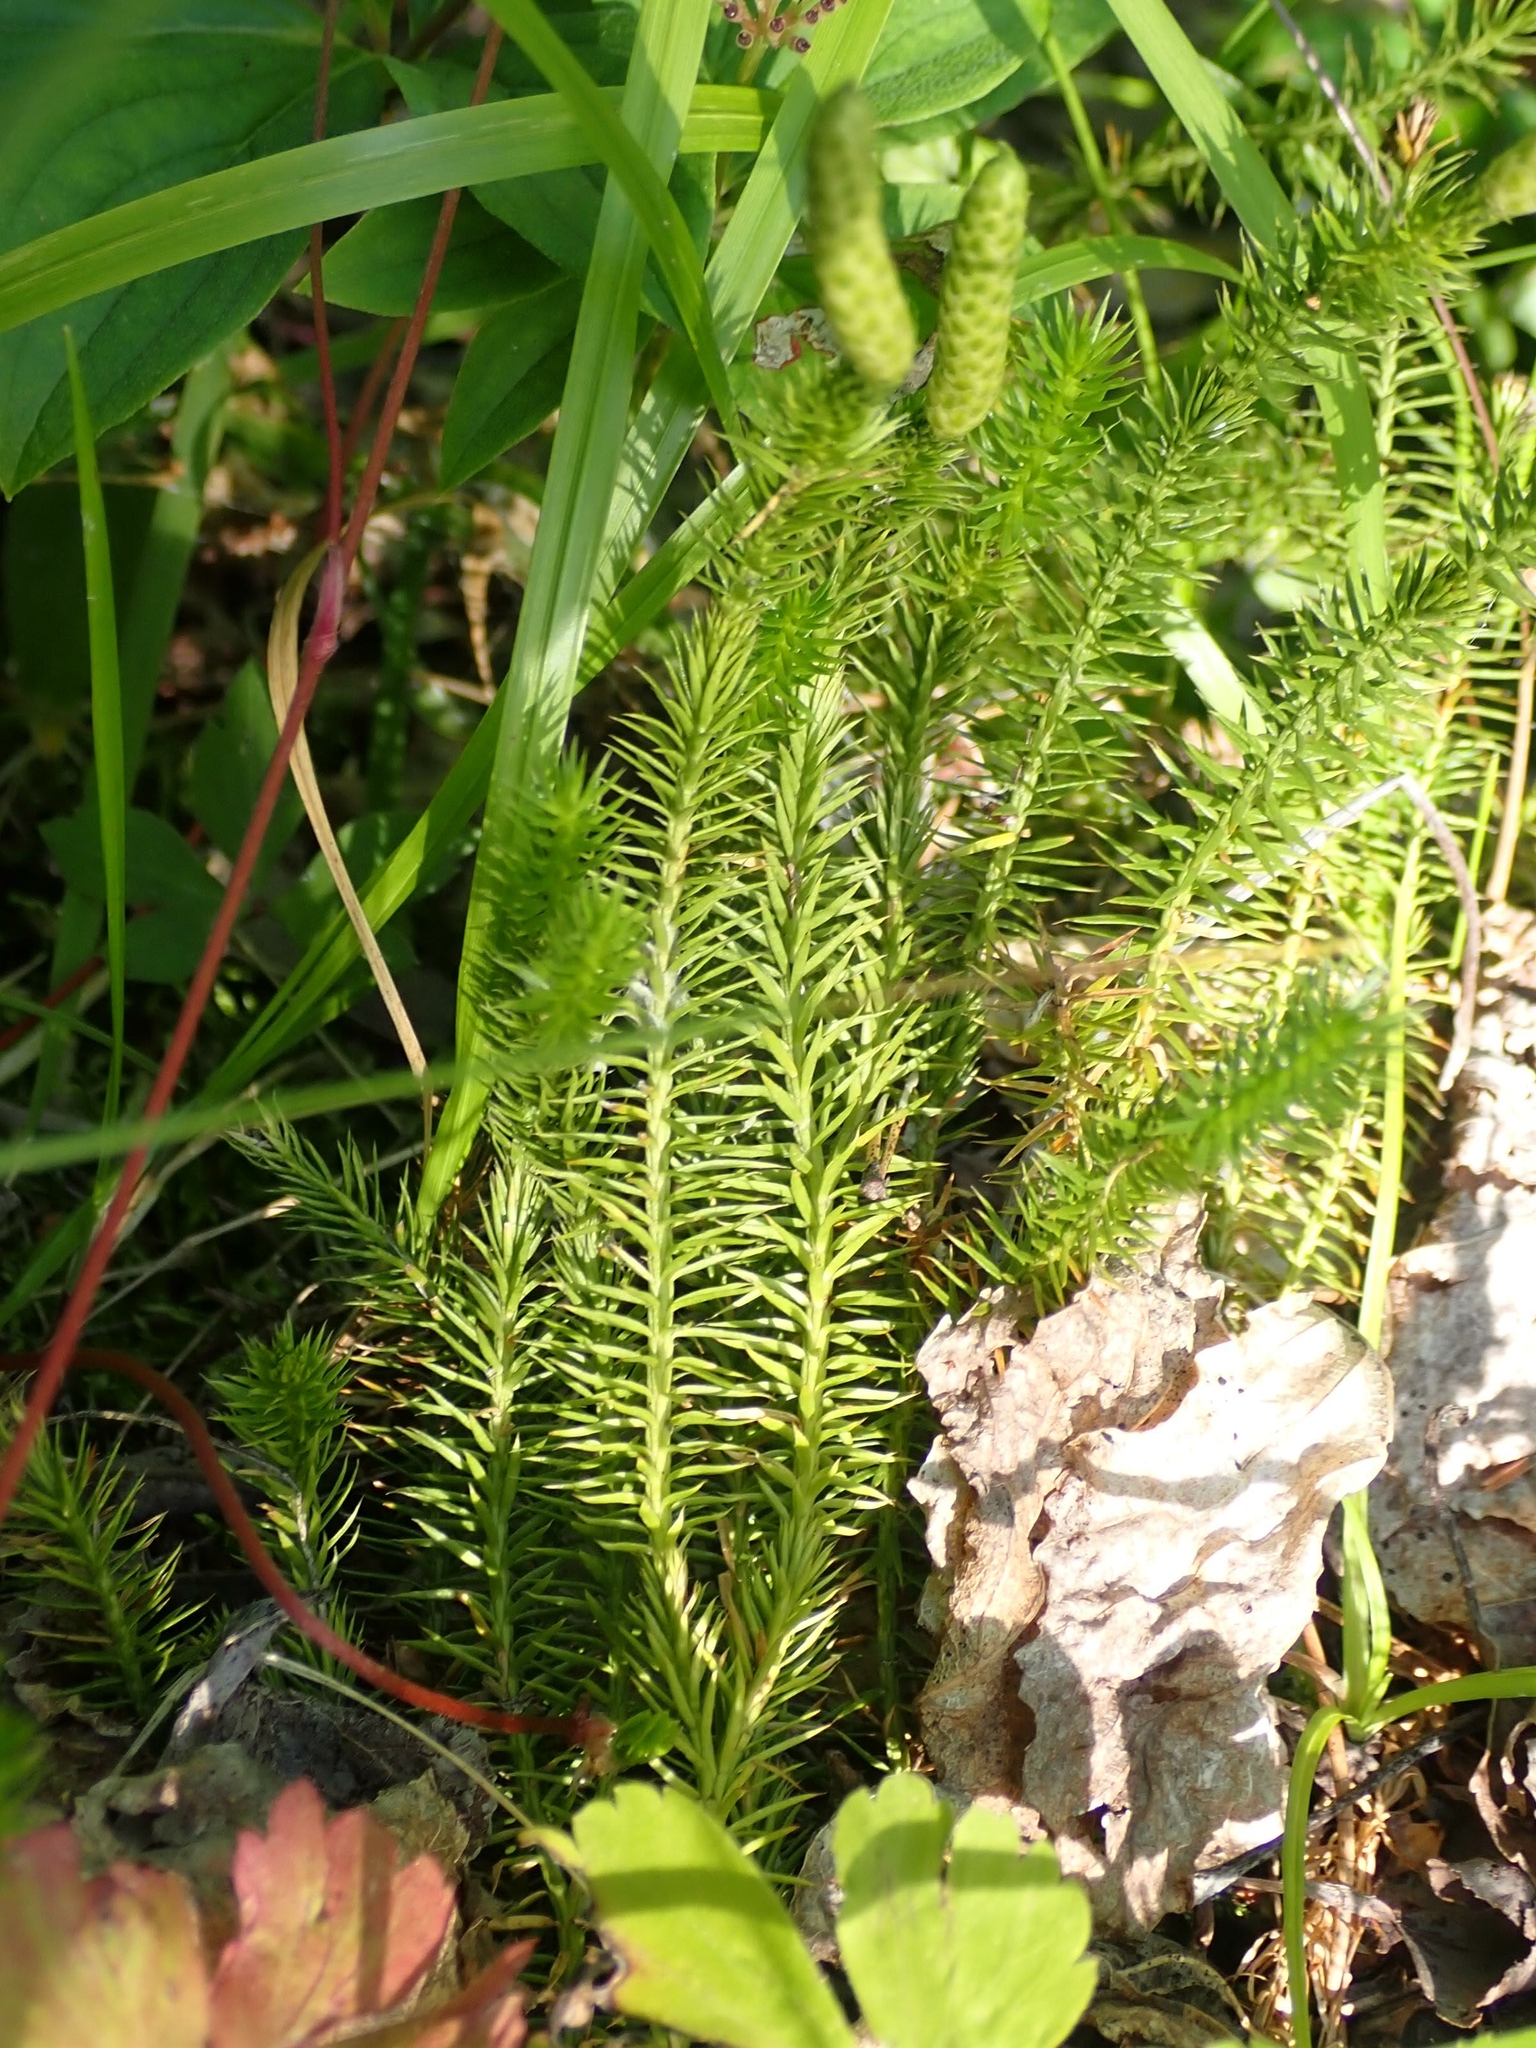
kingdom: Plantae
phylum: Tracheophyta
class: Lycopodiopsida
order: Lycopodiales
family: Lycopodiaceae
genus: Spinulum
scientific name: Spinulum annotinum
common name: Interrupted club-moss
